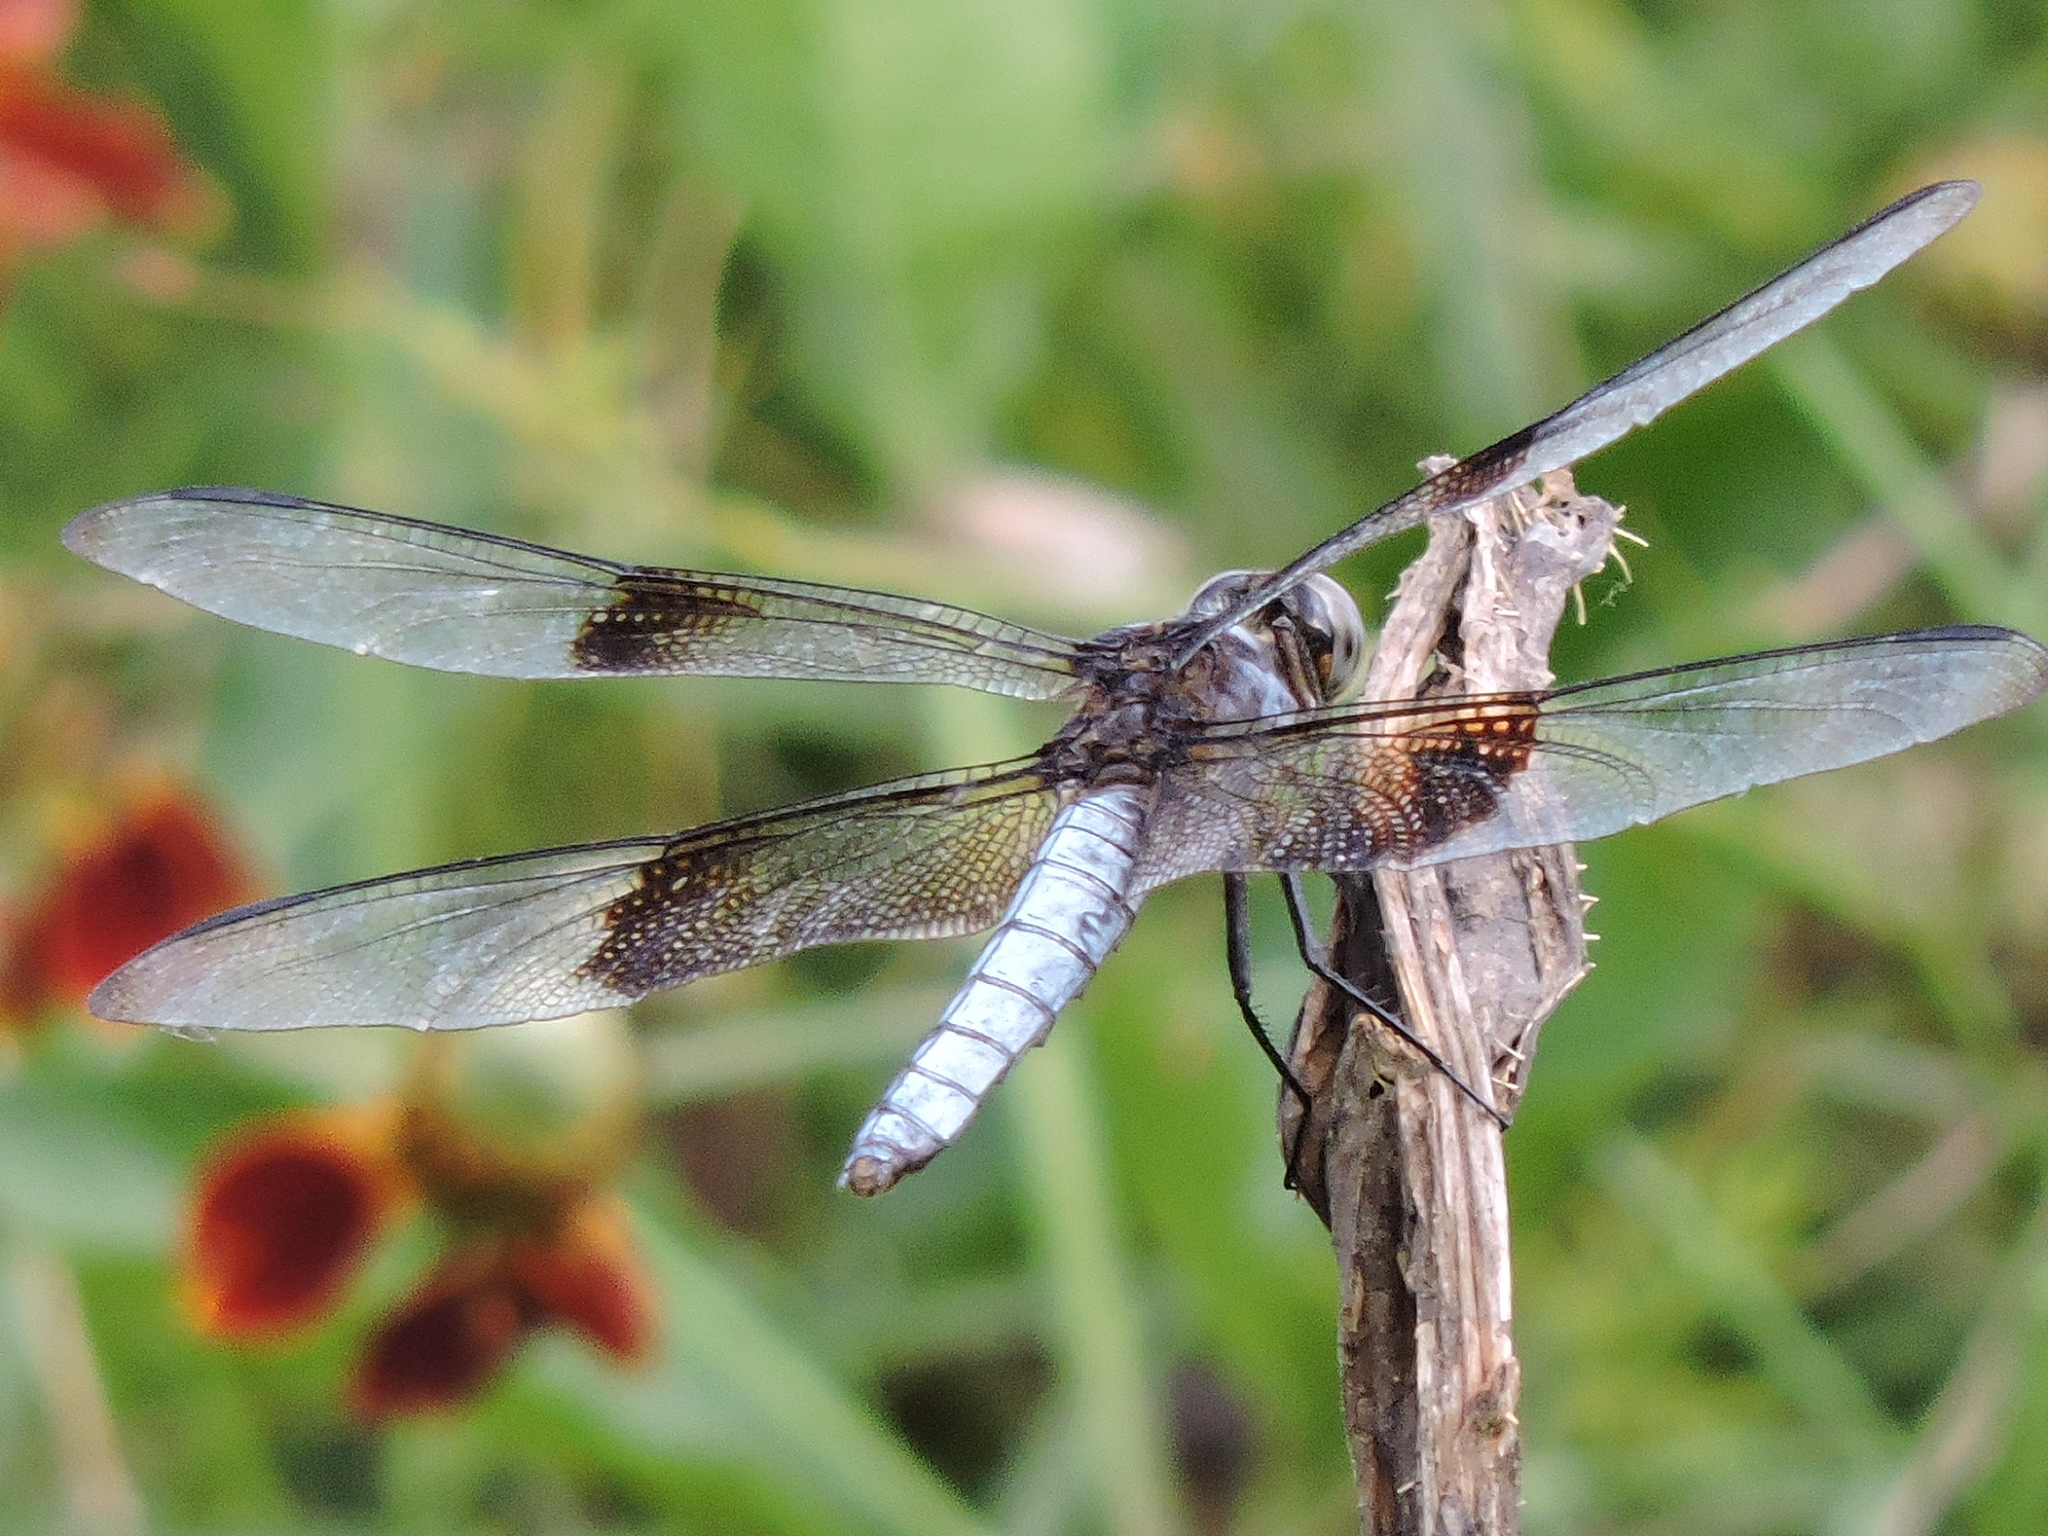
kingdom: Animalia
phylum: Arthropoda
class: Insecta
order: Odonata
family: Libellulidae
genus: Libellula
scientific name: Libellula luctuosa
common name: Widow skimmer
